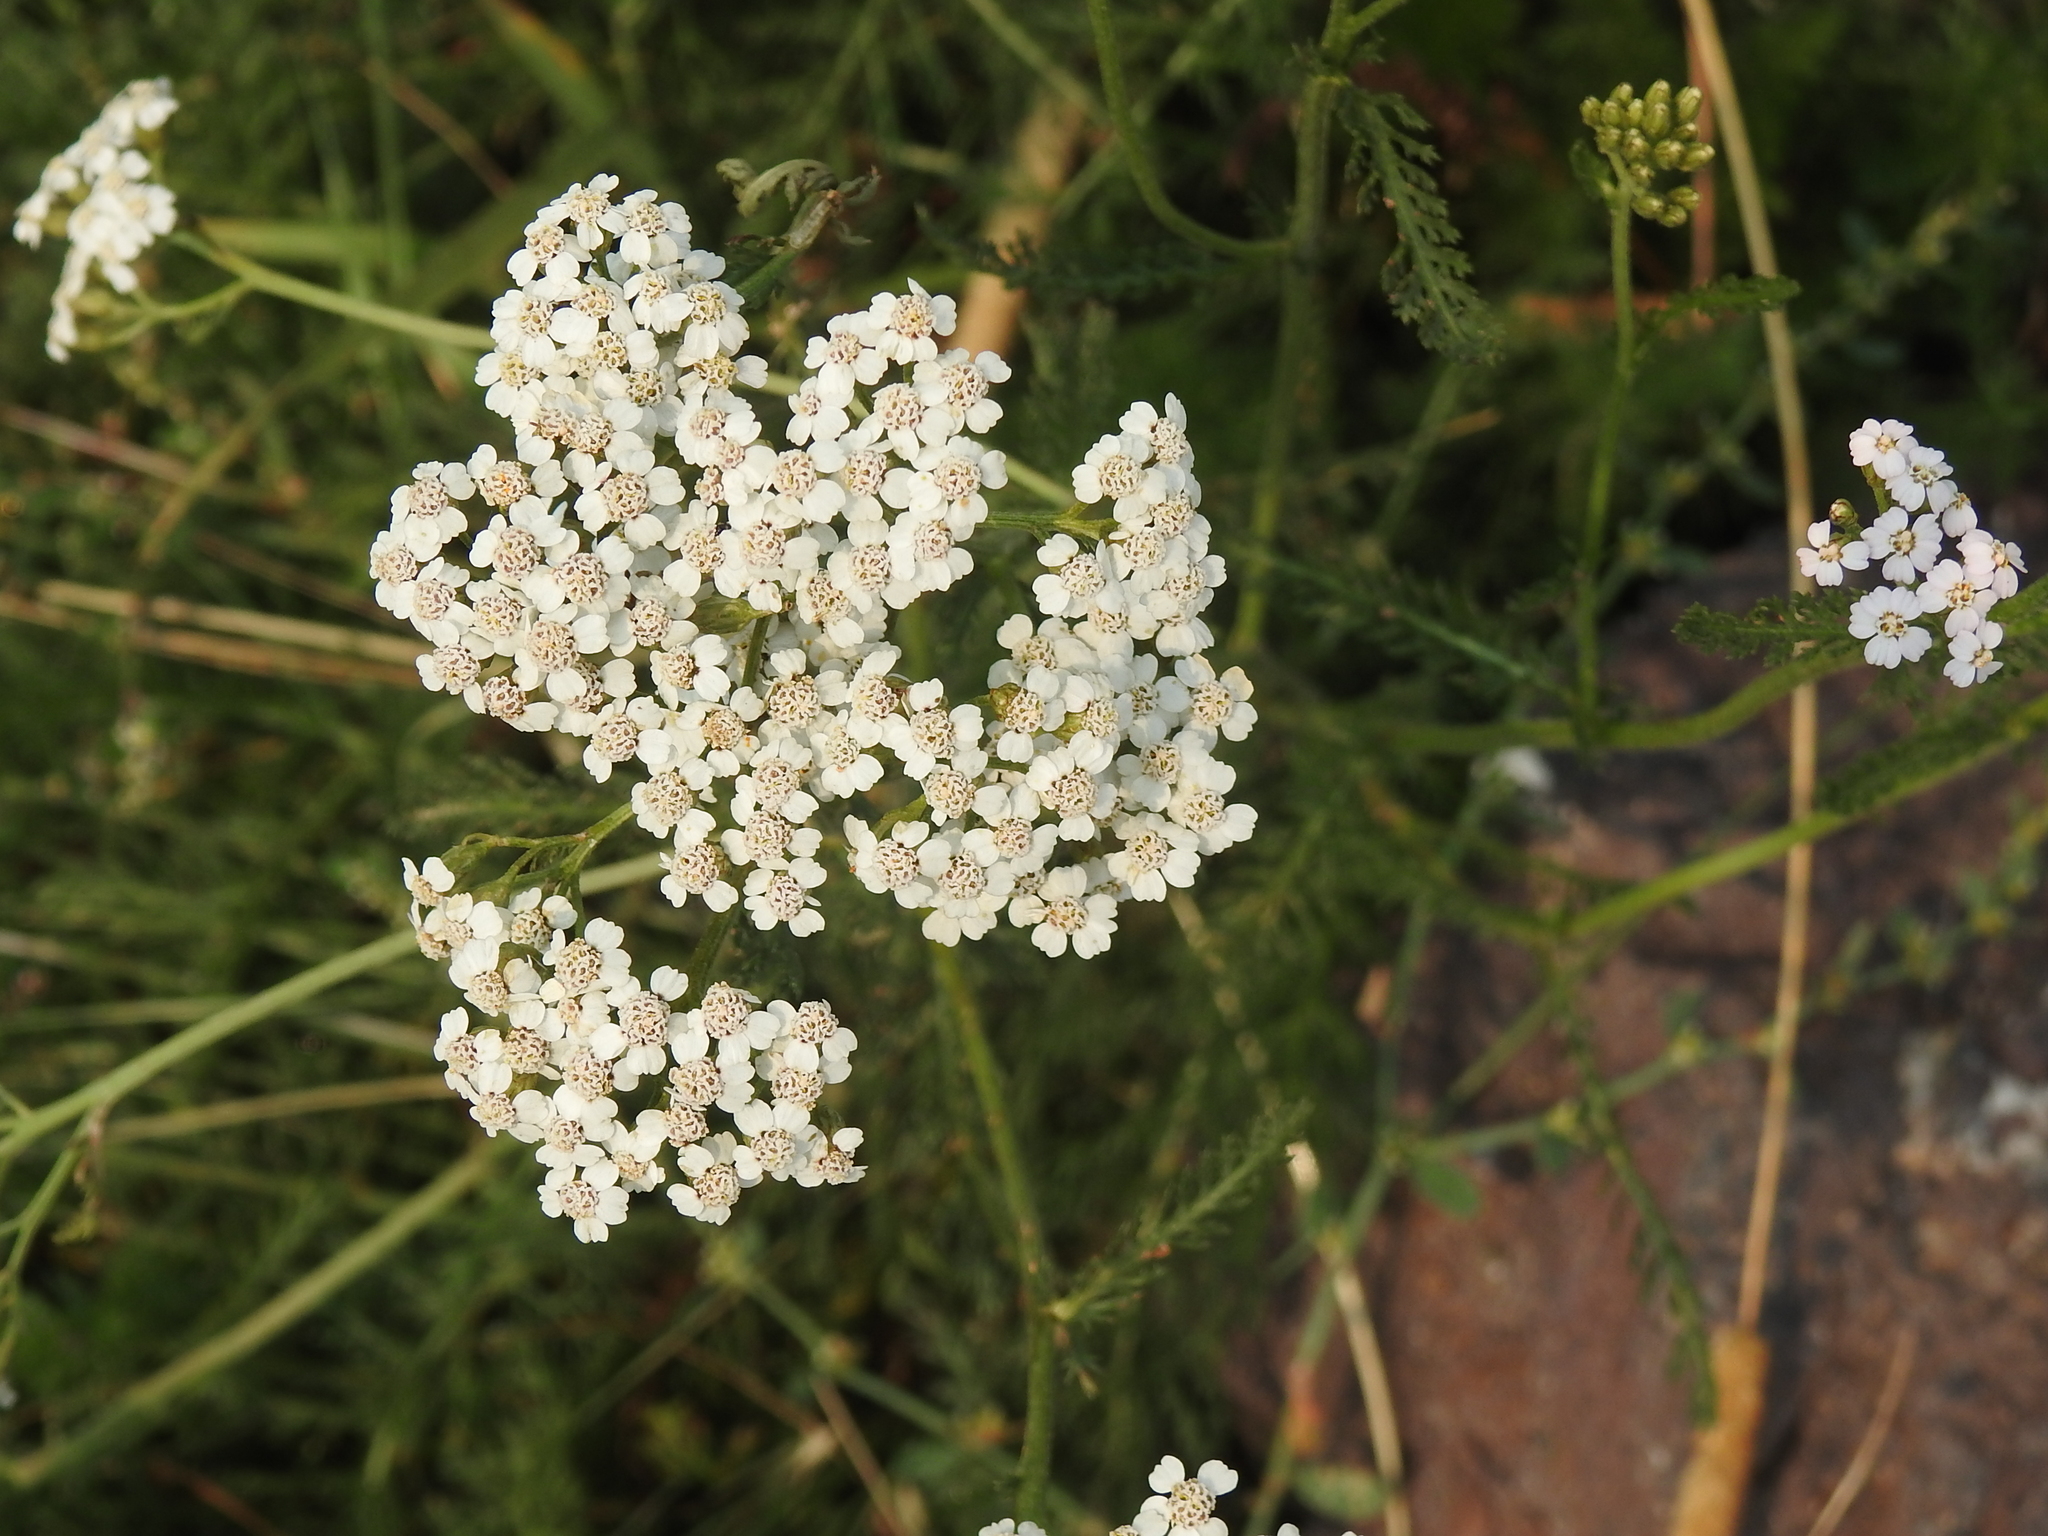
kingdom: Plantae
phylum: Tracheophyta
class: Magnoliopsida
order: Asterales
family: Asteraceae
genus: Achillea
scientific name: Achillea millefolium
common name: Yarrow
